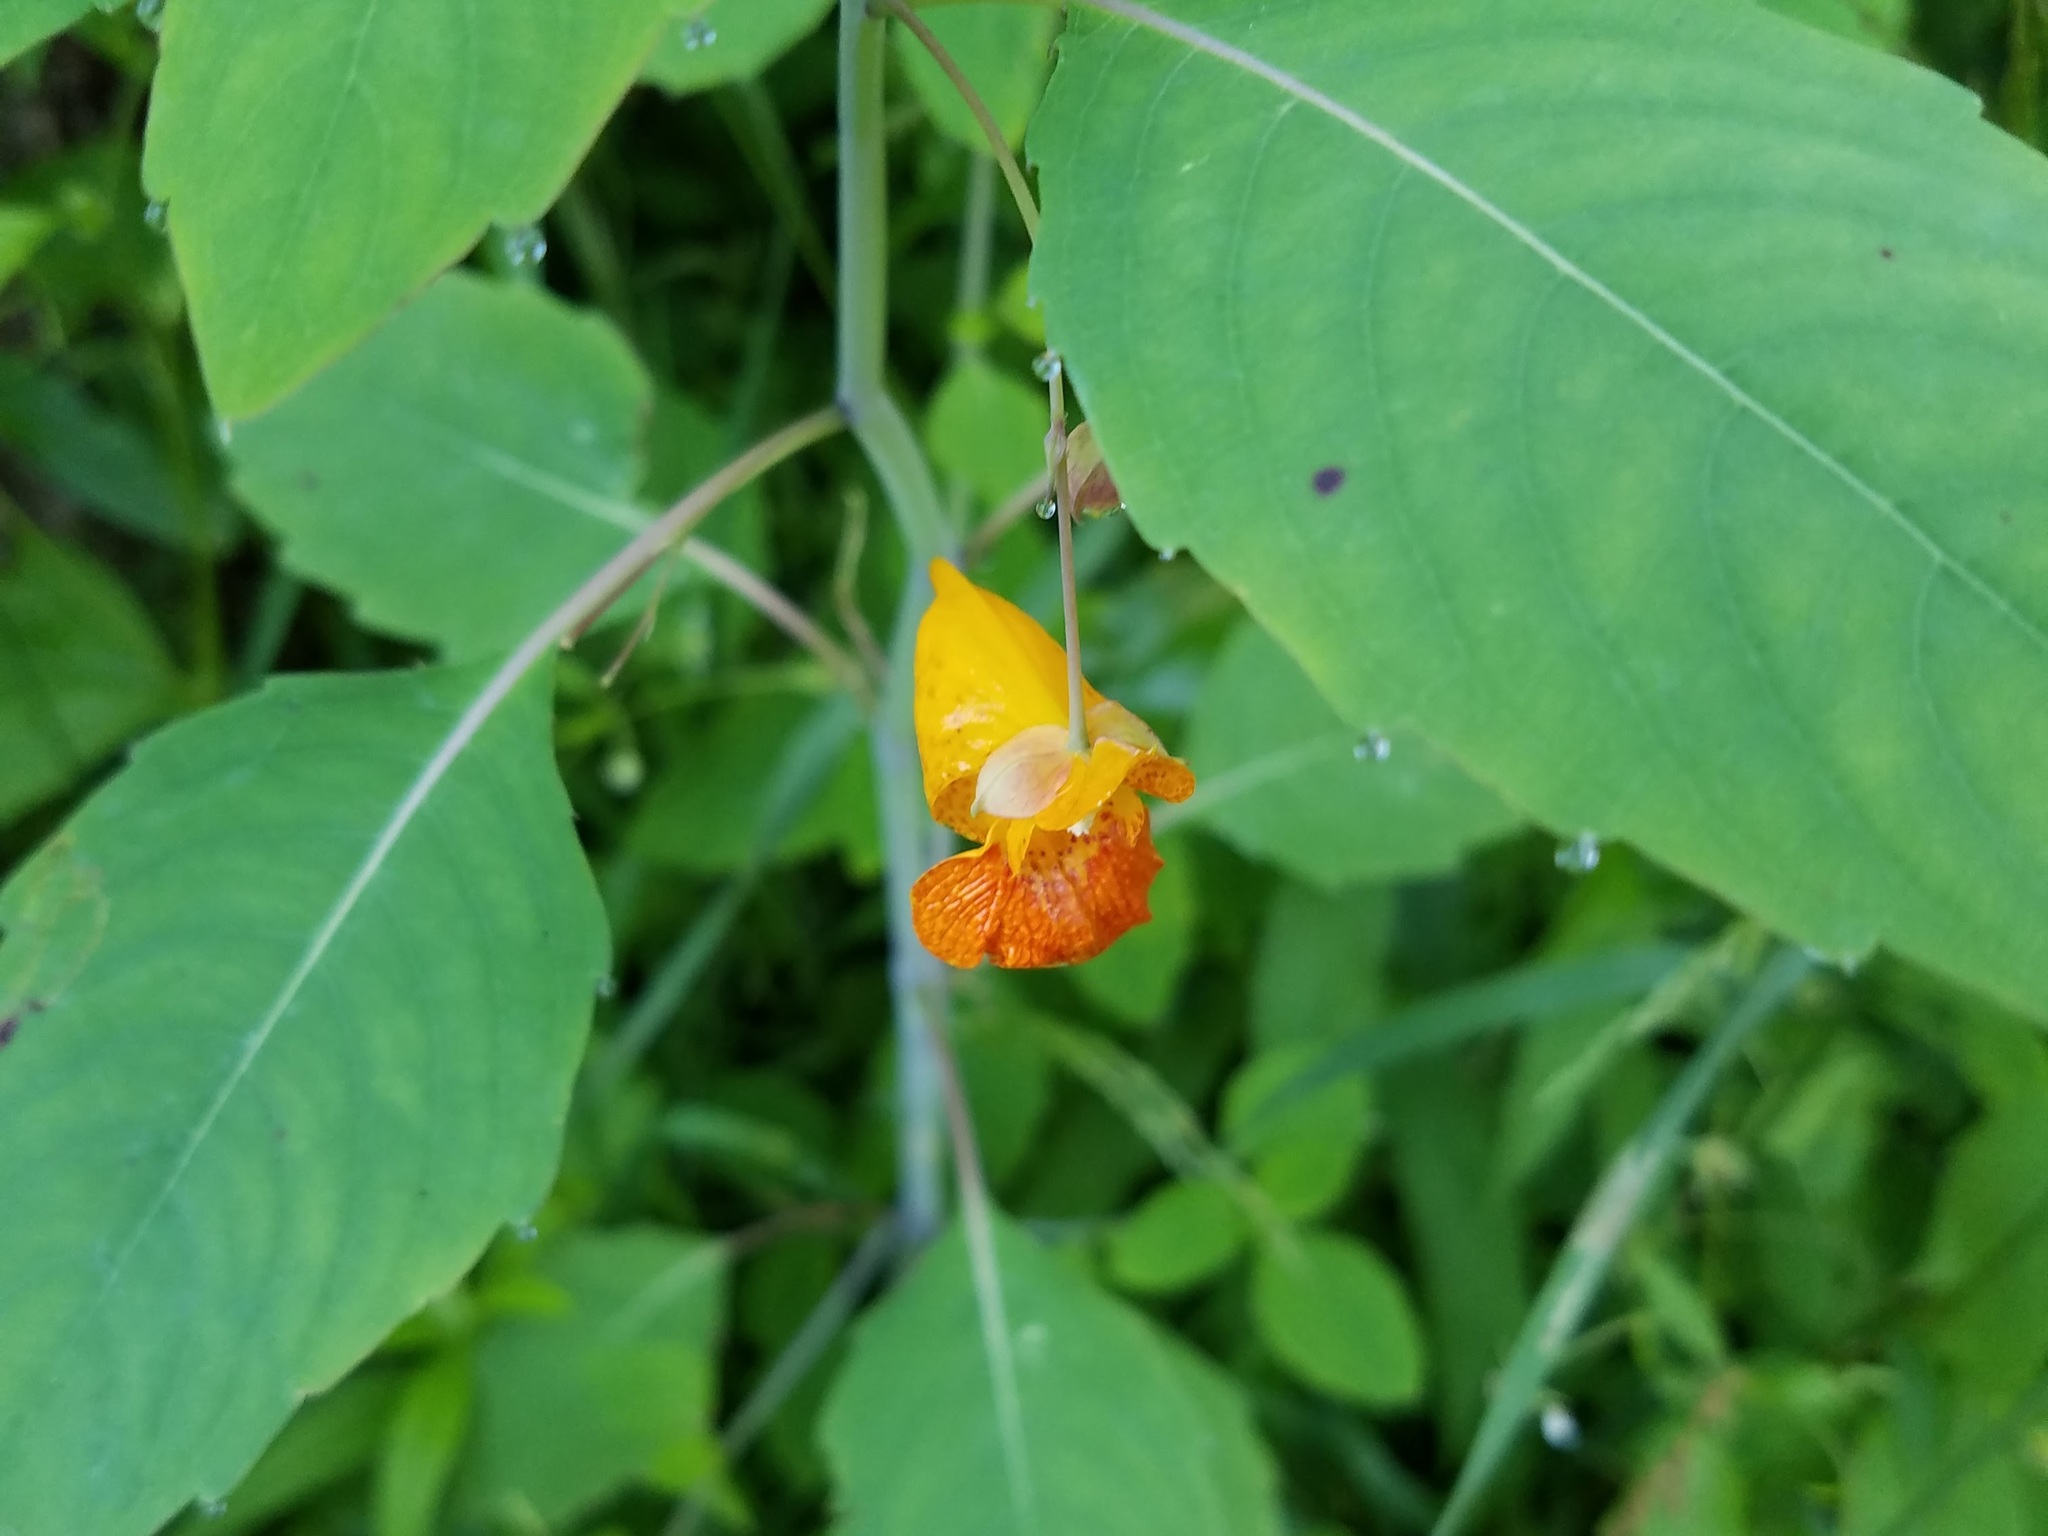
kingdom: Plantae
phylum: Tracheophyta
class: Magnoliopsida
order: Ericales
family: Balsaminaceae
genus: Impatiens
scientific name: Impatiens capensis
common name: Orange balsam
